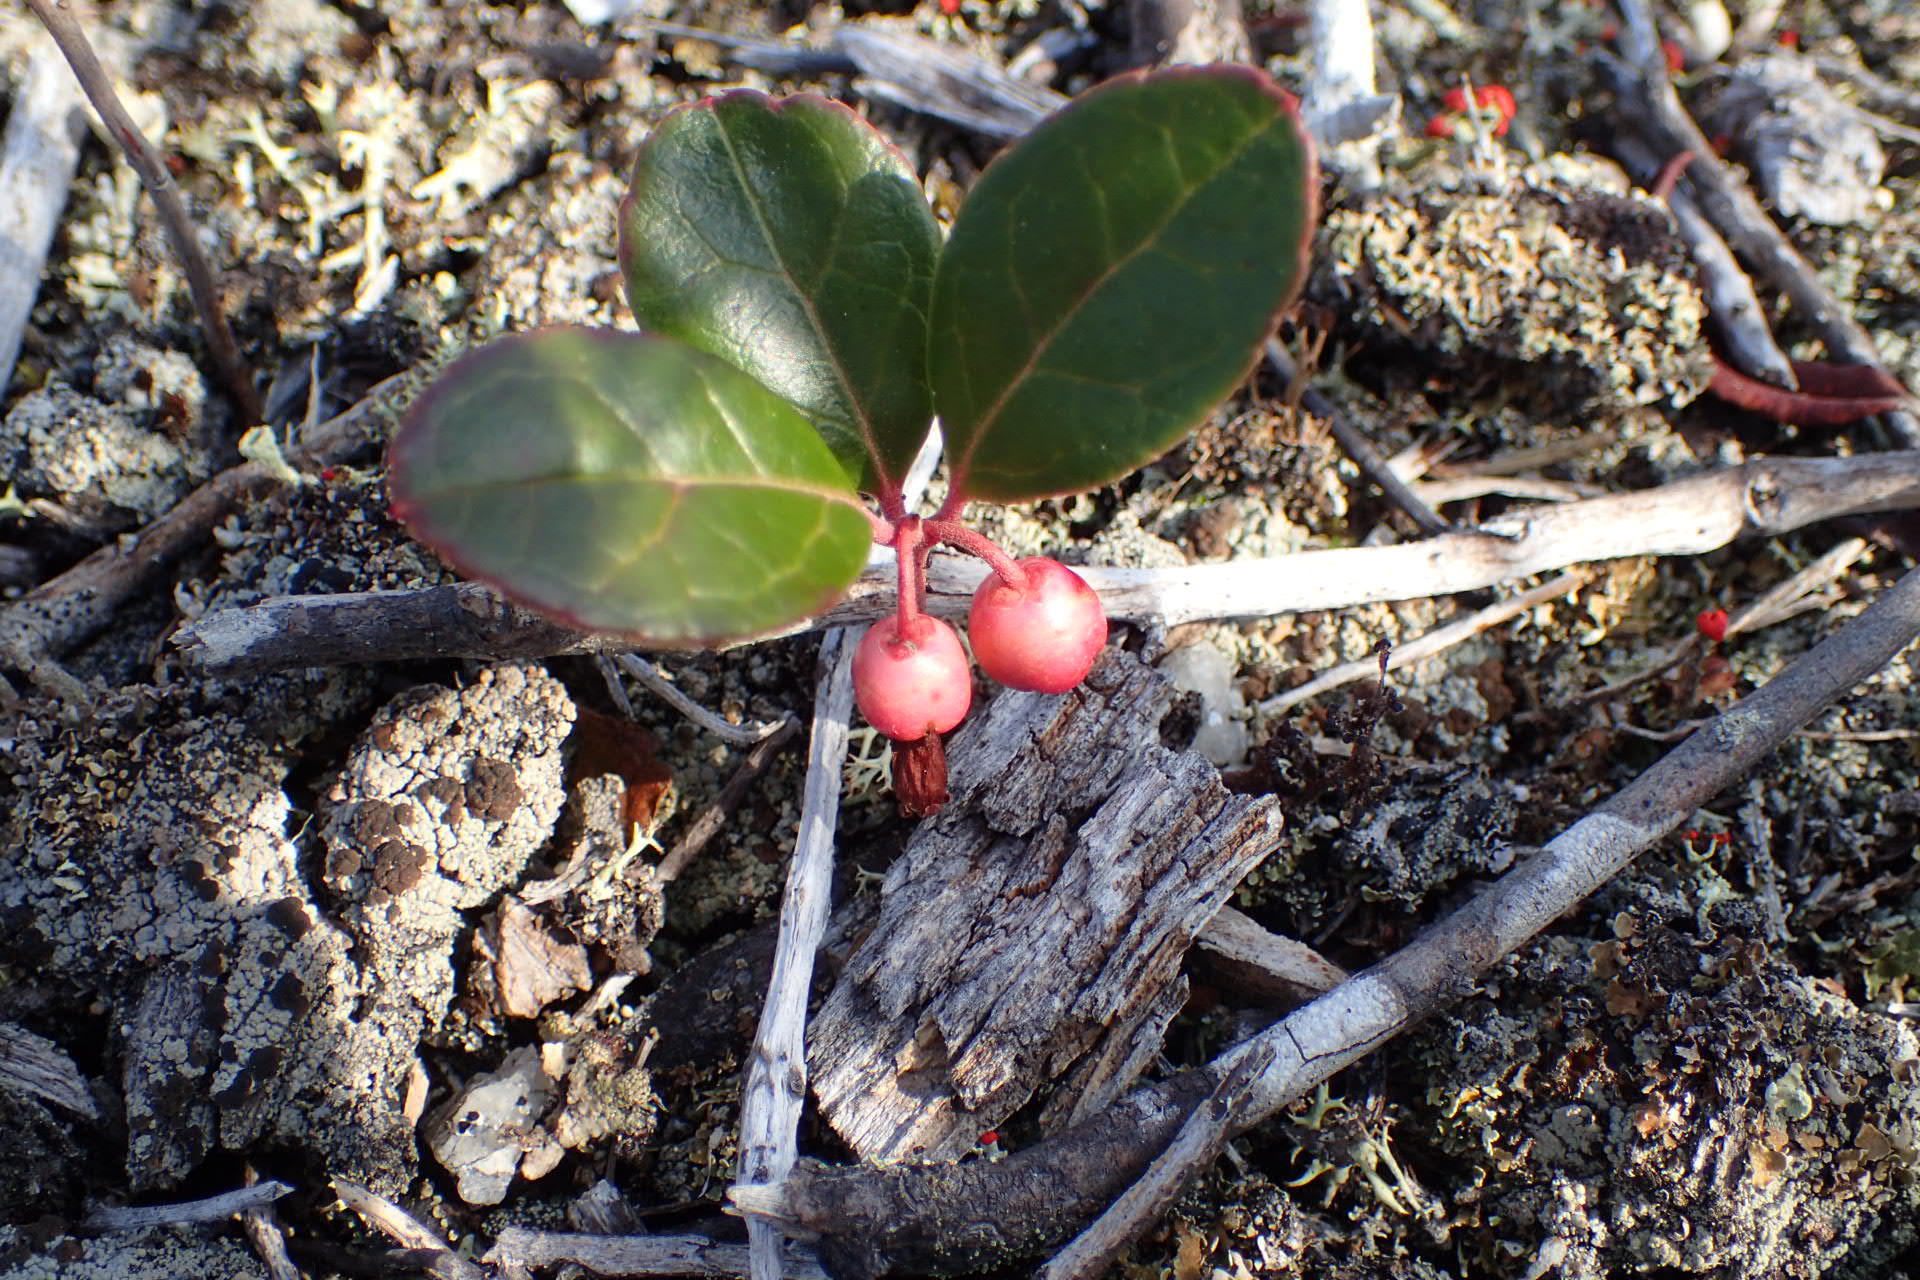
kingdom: Plantae
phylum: Tracheophyta
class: Magnoliopsida
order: Ericales
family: Ericaceae
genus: Gaultheria
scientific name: Gaultheria procumbens
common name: Checkerberry
